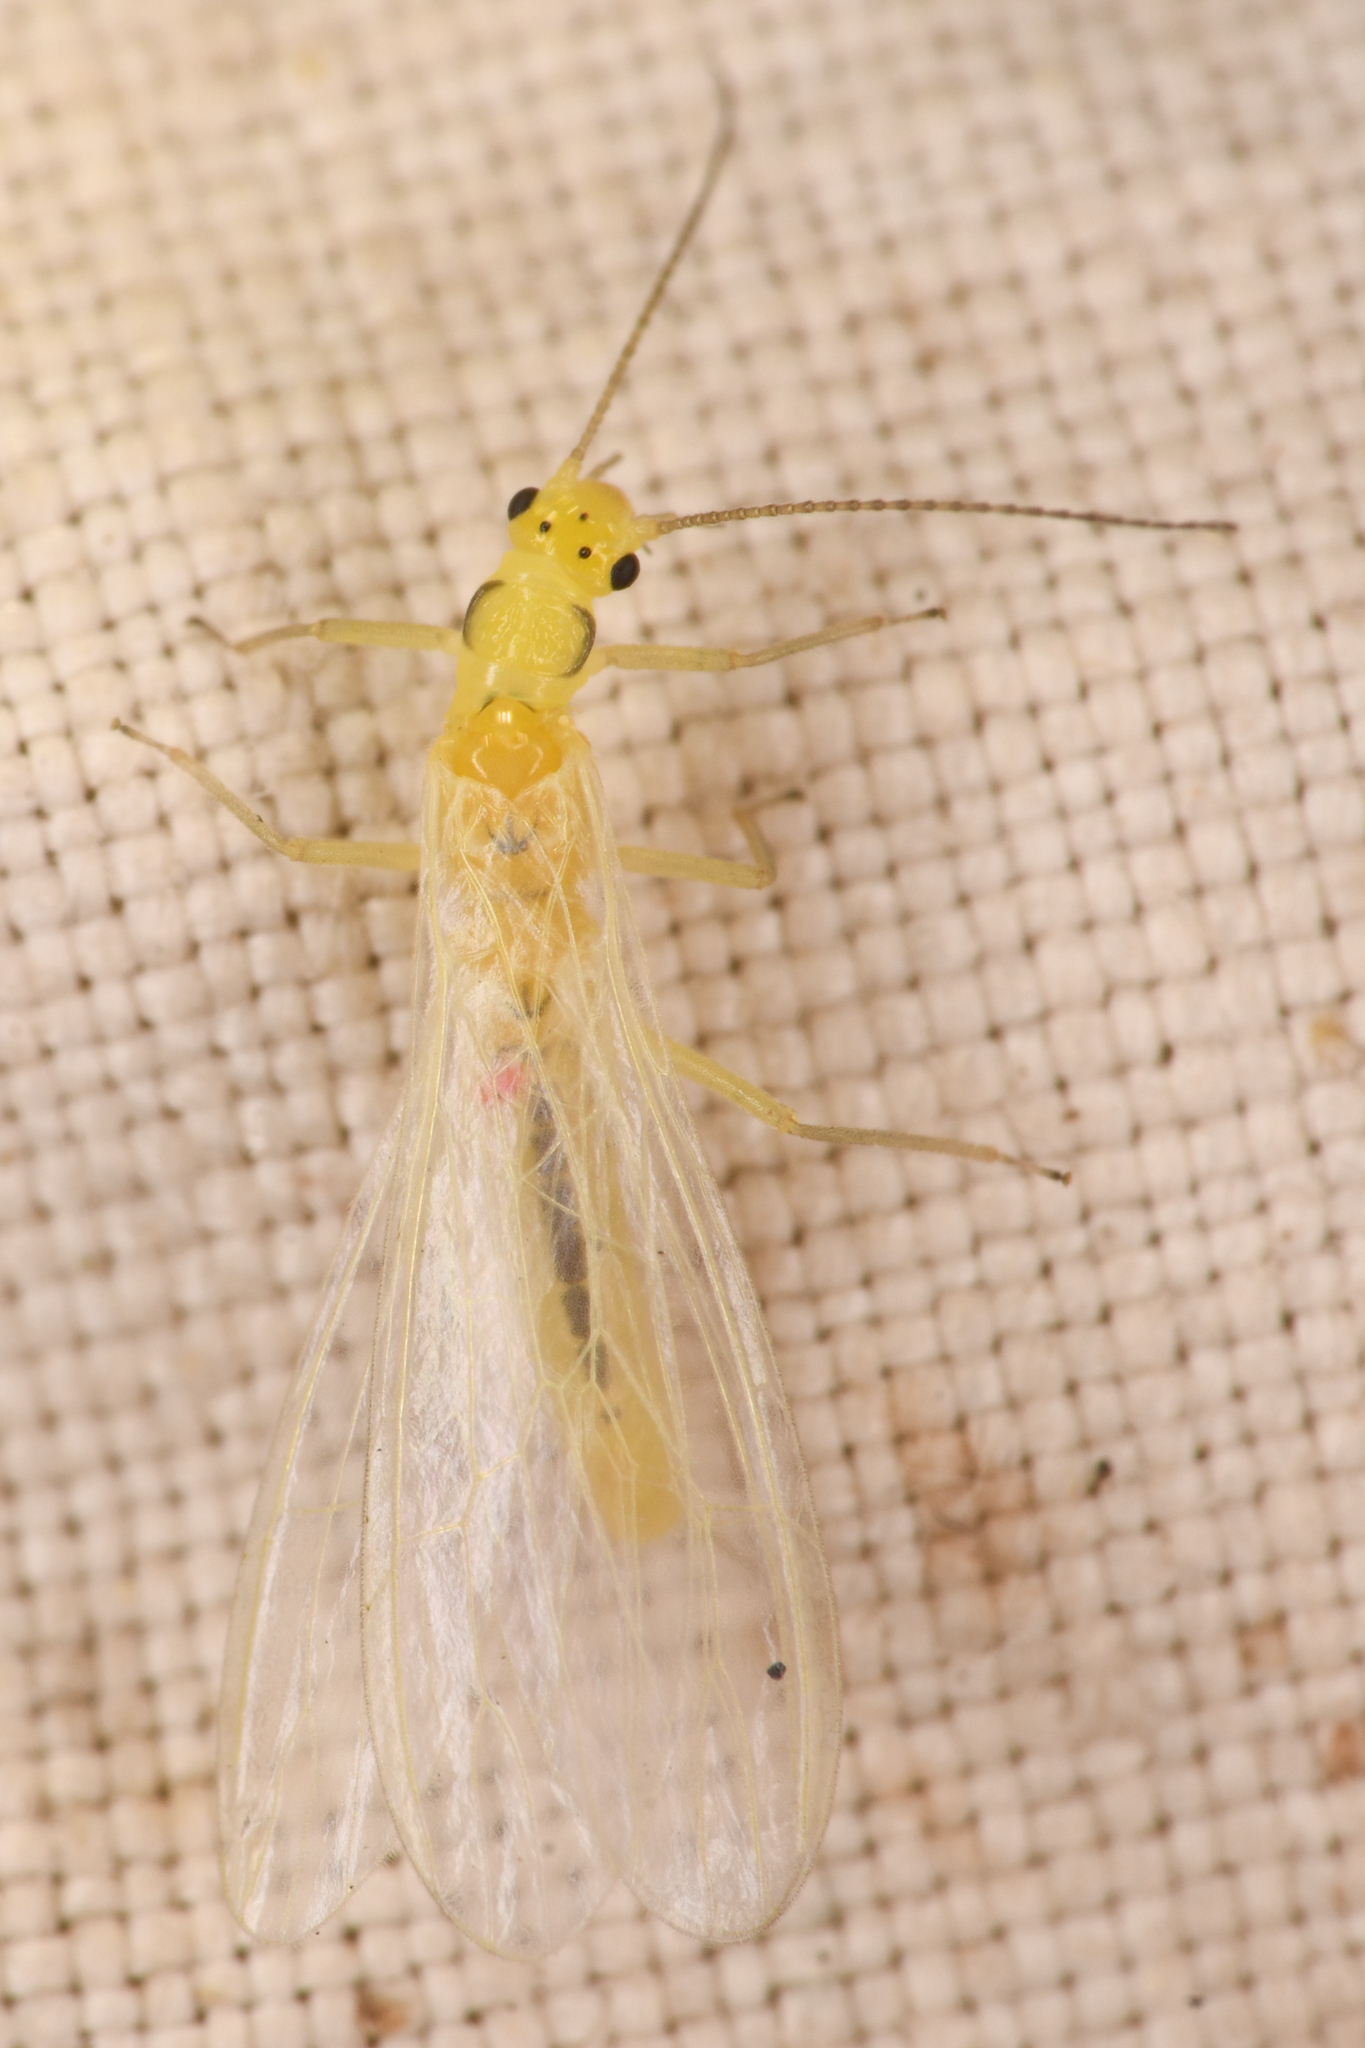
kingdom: Animalia
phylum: Arthropoda
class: Insecta
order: Plecoptera
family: Chloroperlidae
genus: Plumiperla
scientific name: Plumiperla diversa
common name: Margined sallfly
